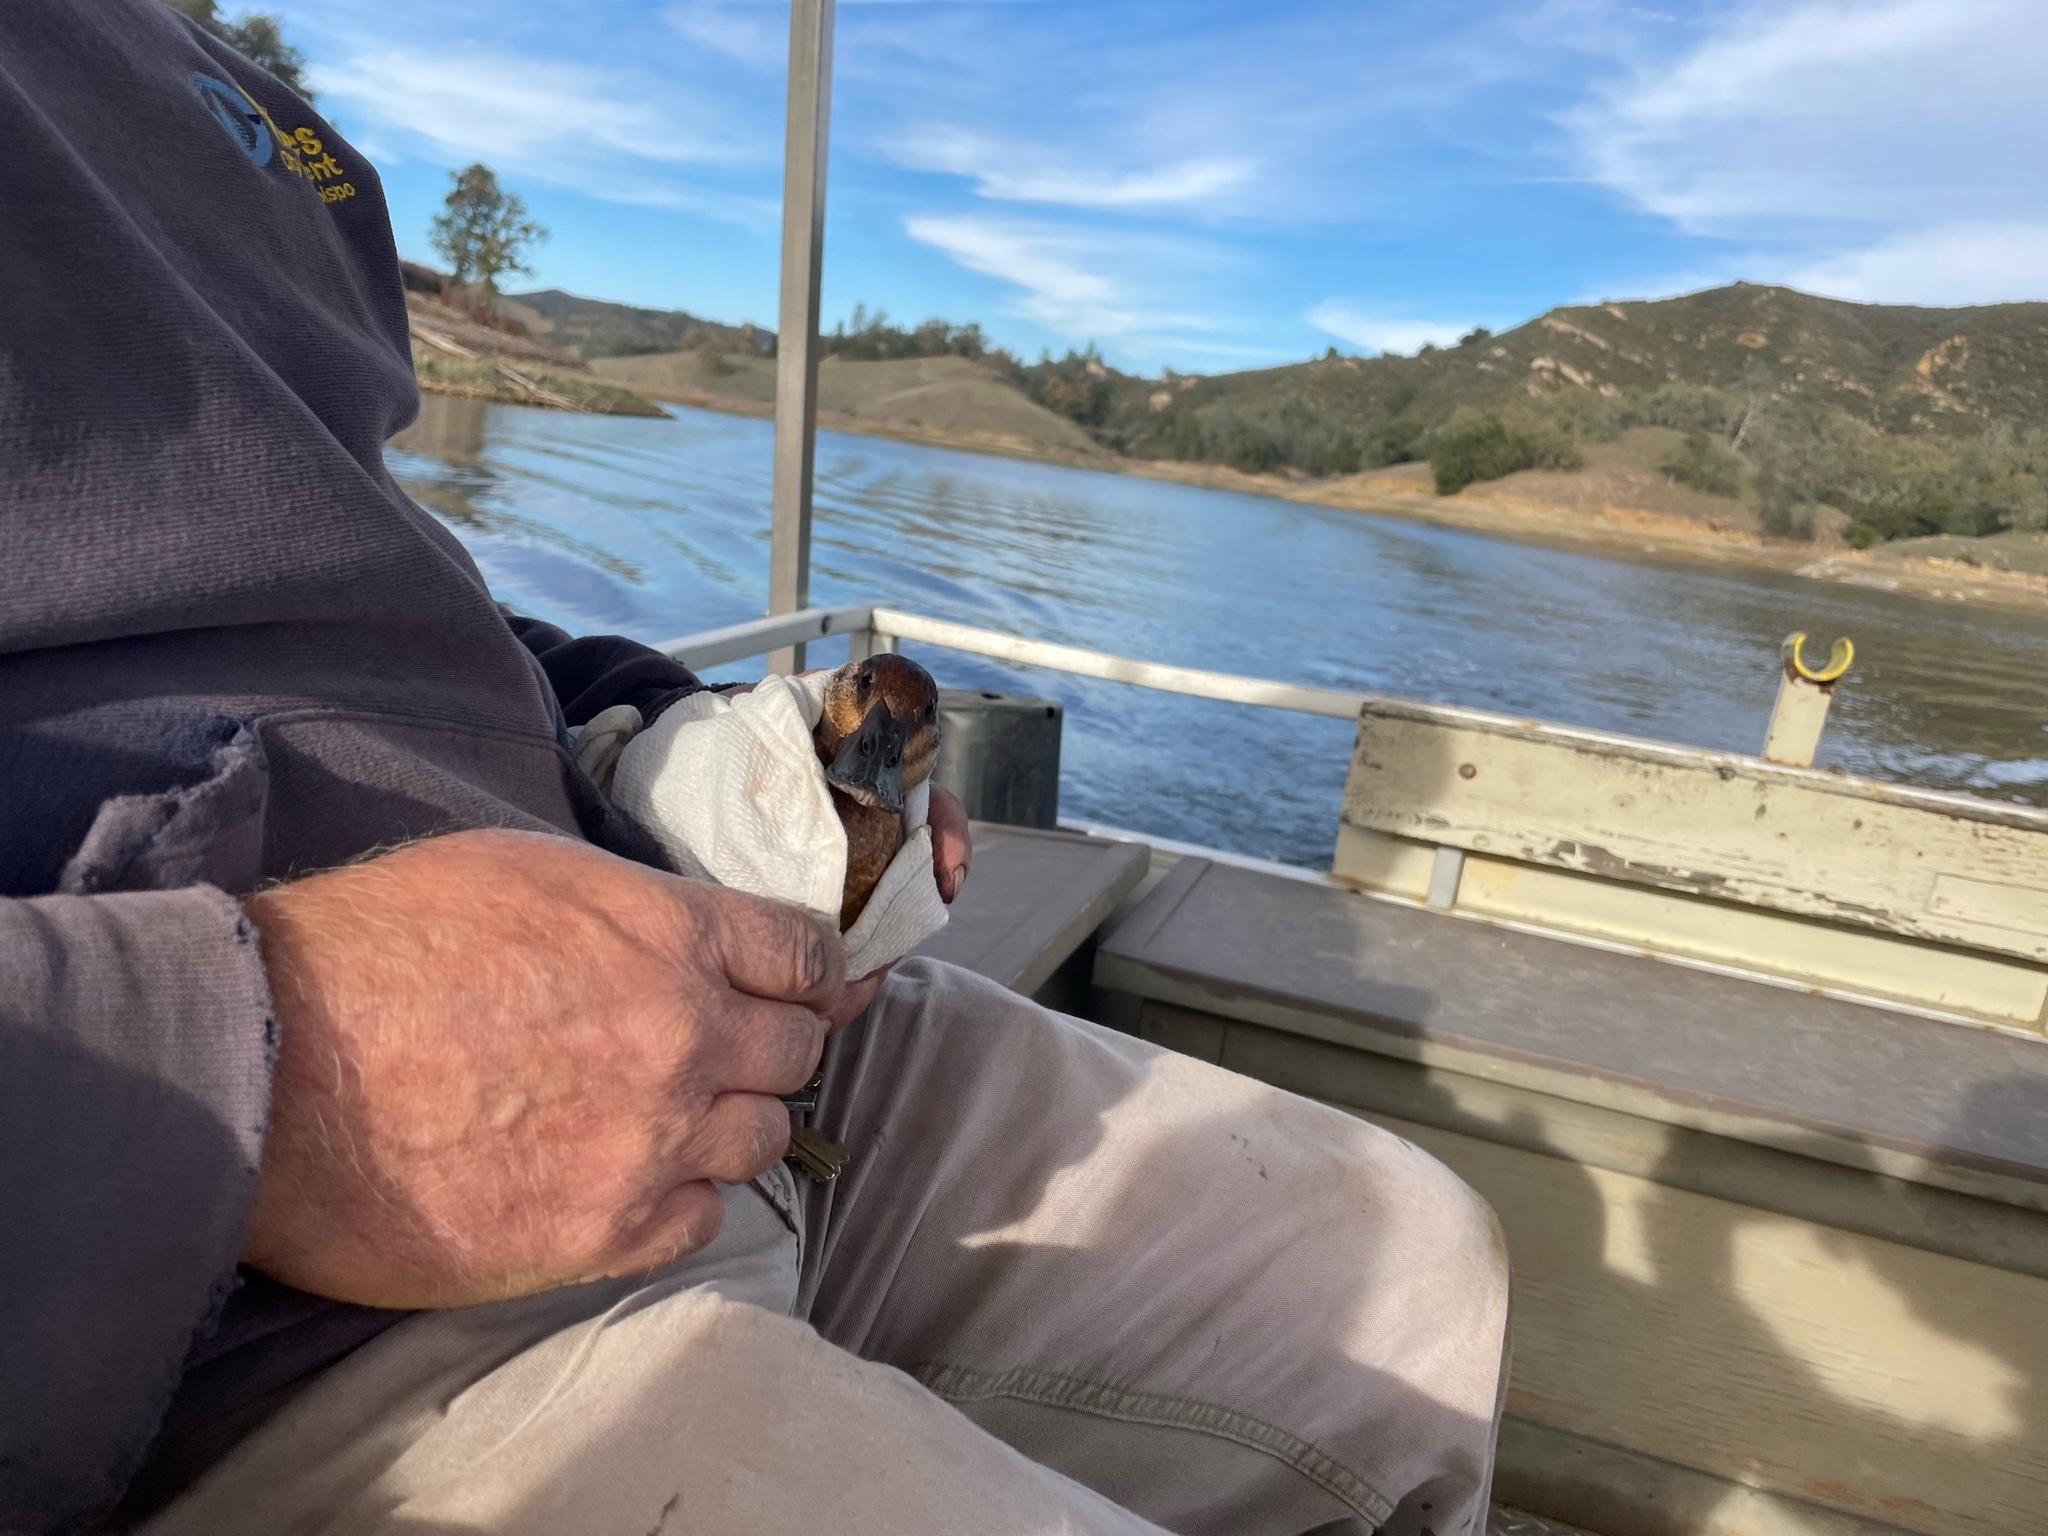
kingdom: Animalia
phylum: Chordata
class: Aves
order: Anseriformes
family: Anatidae
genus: Oxyura
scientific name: Oxyura jamaicensis
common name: Ruddy duck
